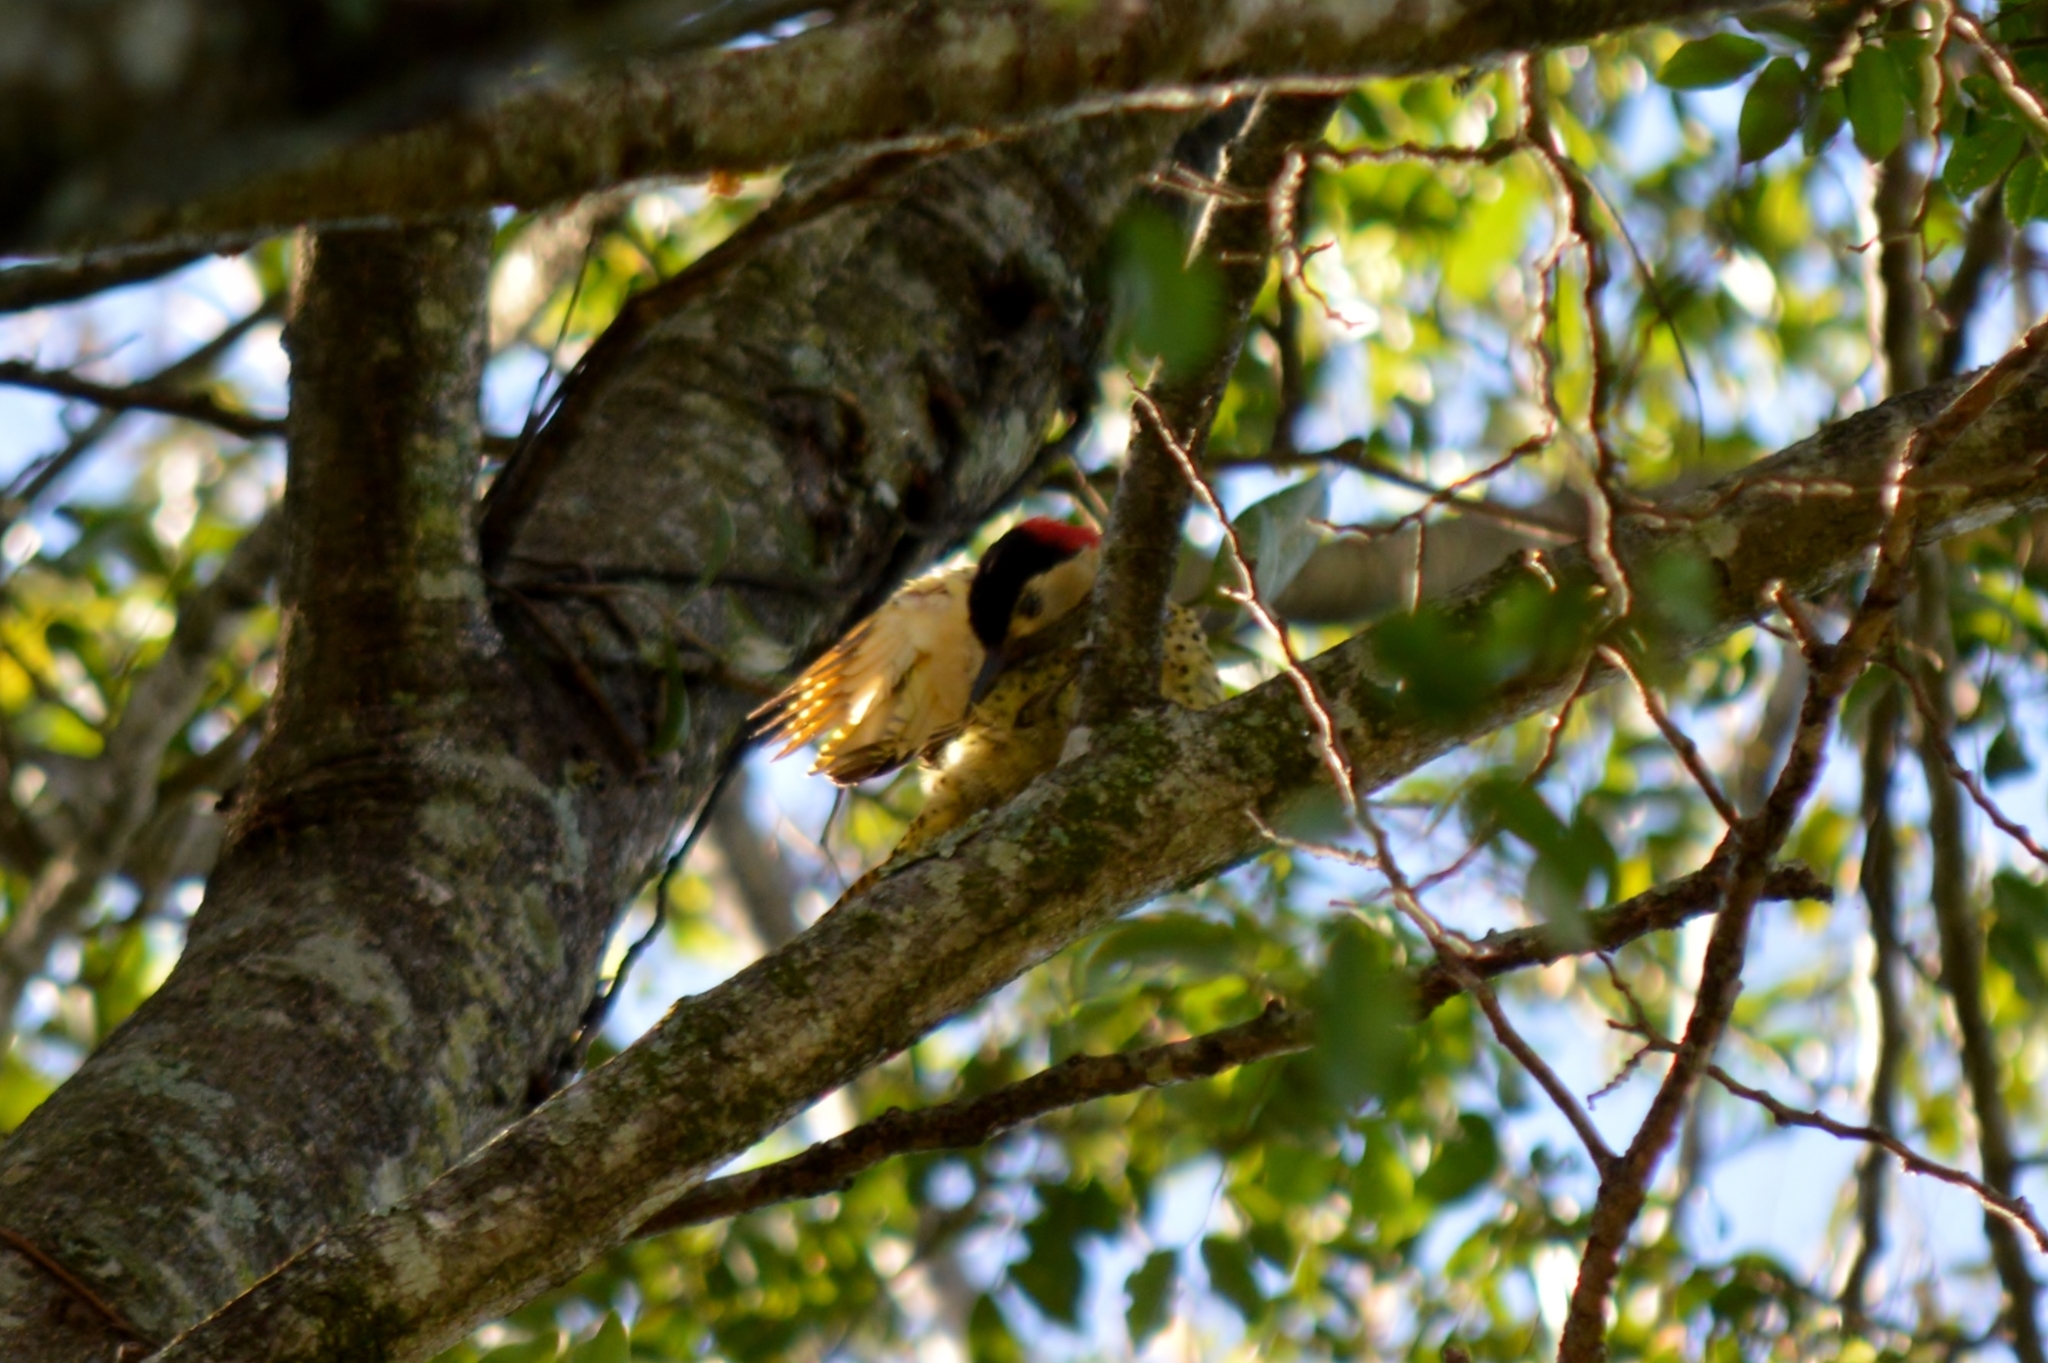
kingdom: Animalia
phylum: Chordata
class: Aves
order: Piciformes
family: Picidae
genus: Colaptes
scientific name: Colaptes melanochloros
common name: Green-barred woodpecker
